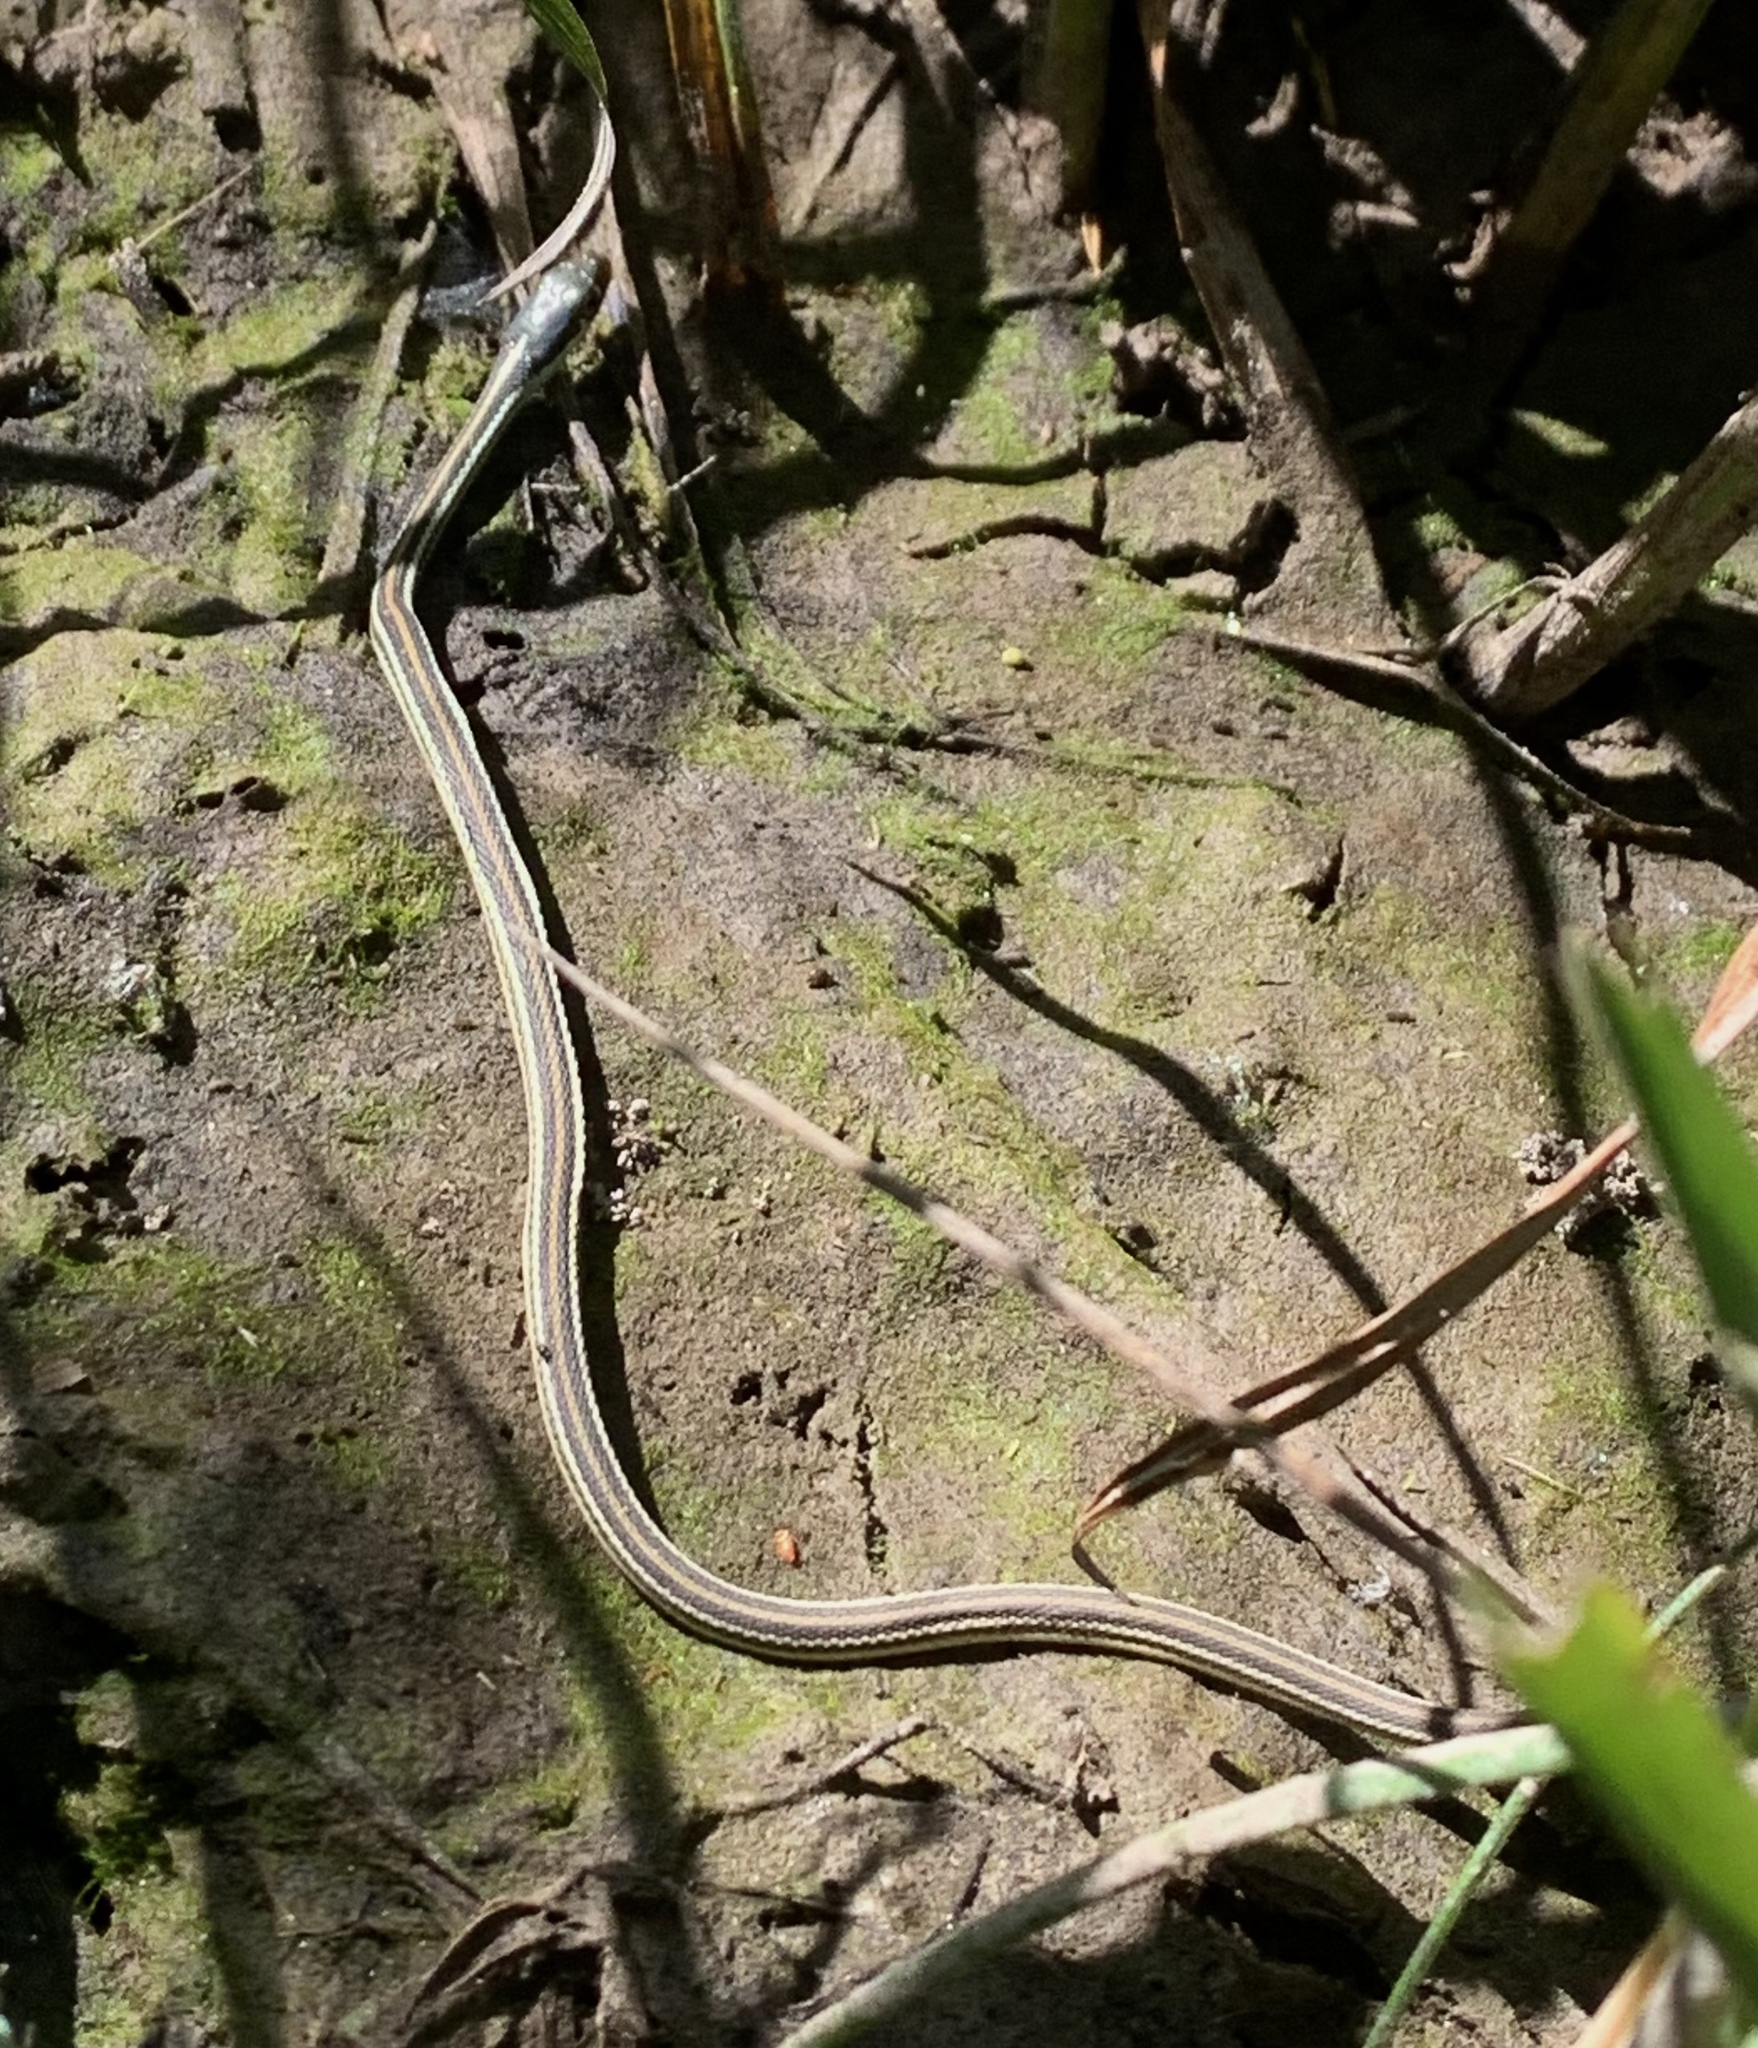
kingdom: Animalia
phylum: Chordata
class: Squamata
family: Colubridae
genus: Thamnophis
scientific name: Thamnophis proximus
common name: Western ribbon snake
